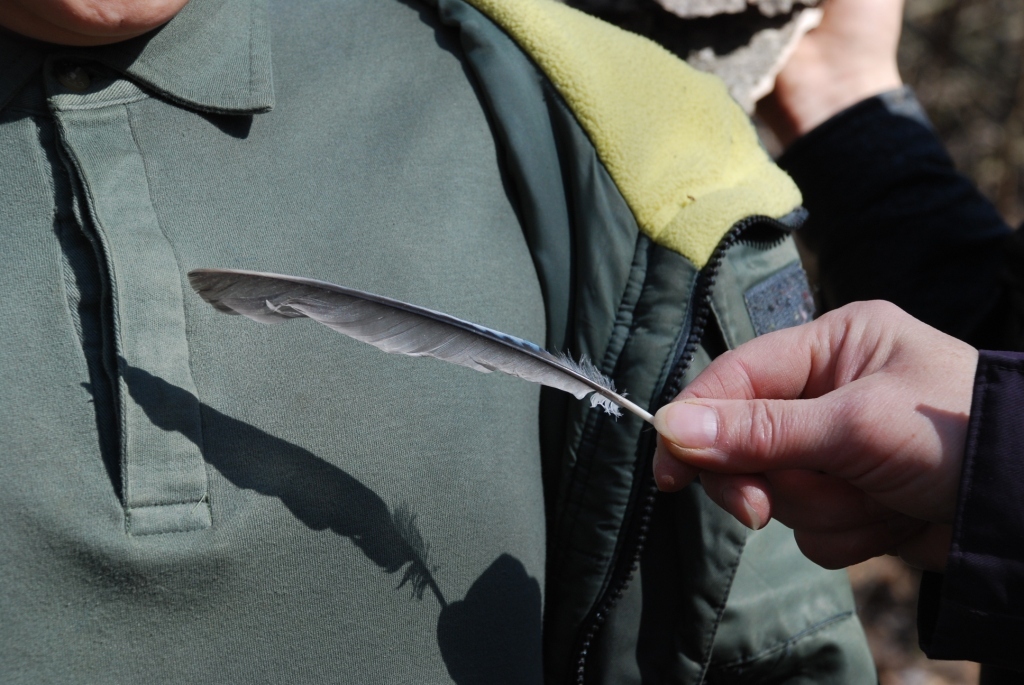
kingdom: Animalia
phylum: Chordata
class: Aves
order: Passeriformes
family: Corvidae
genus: Garrulus
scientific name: Garrulus glandarius
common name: Eurasian jay
